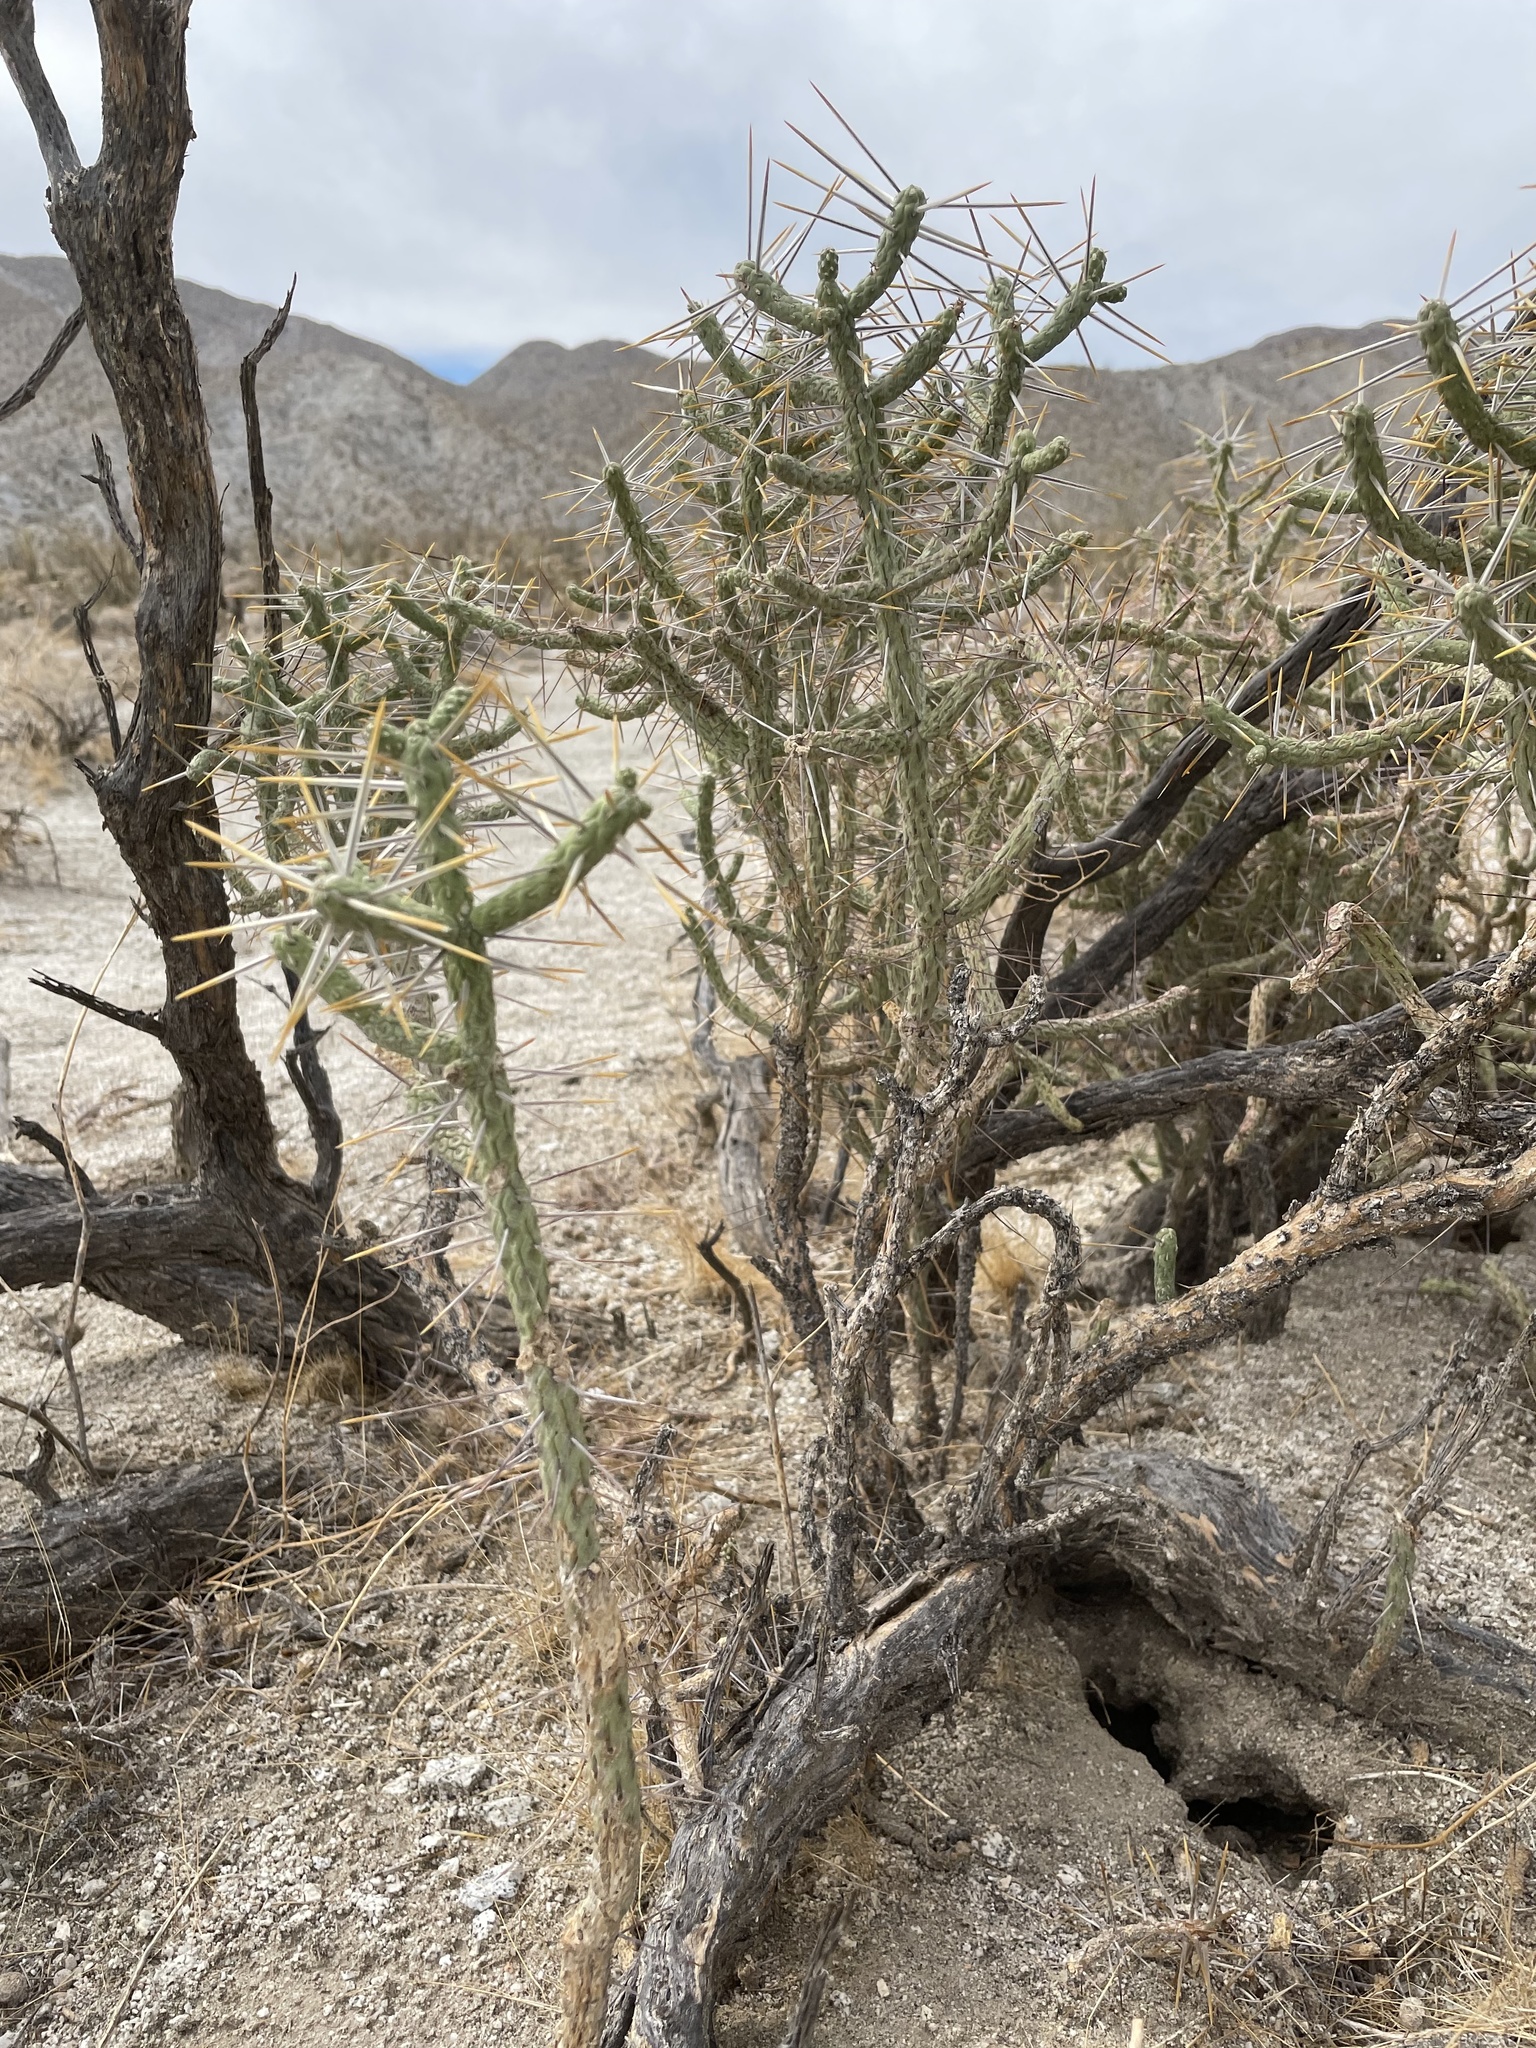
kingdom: Plantae
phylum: Tracheophyta
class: Magnoliopsida
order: Caryophyllales
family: Cactaceae
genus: Cylindropuntia
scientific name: Cylindropuntia ramosissima
